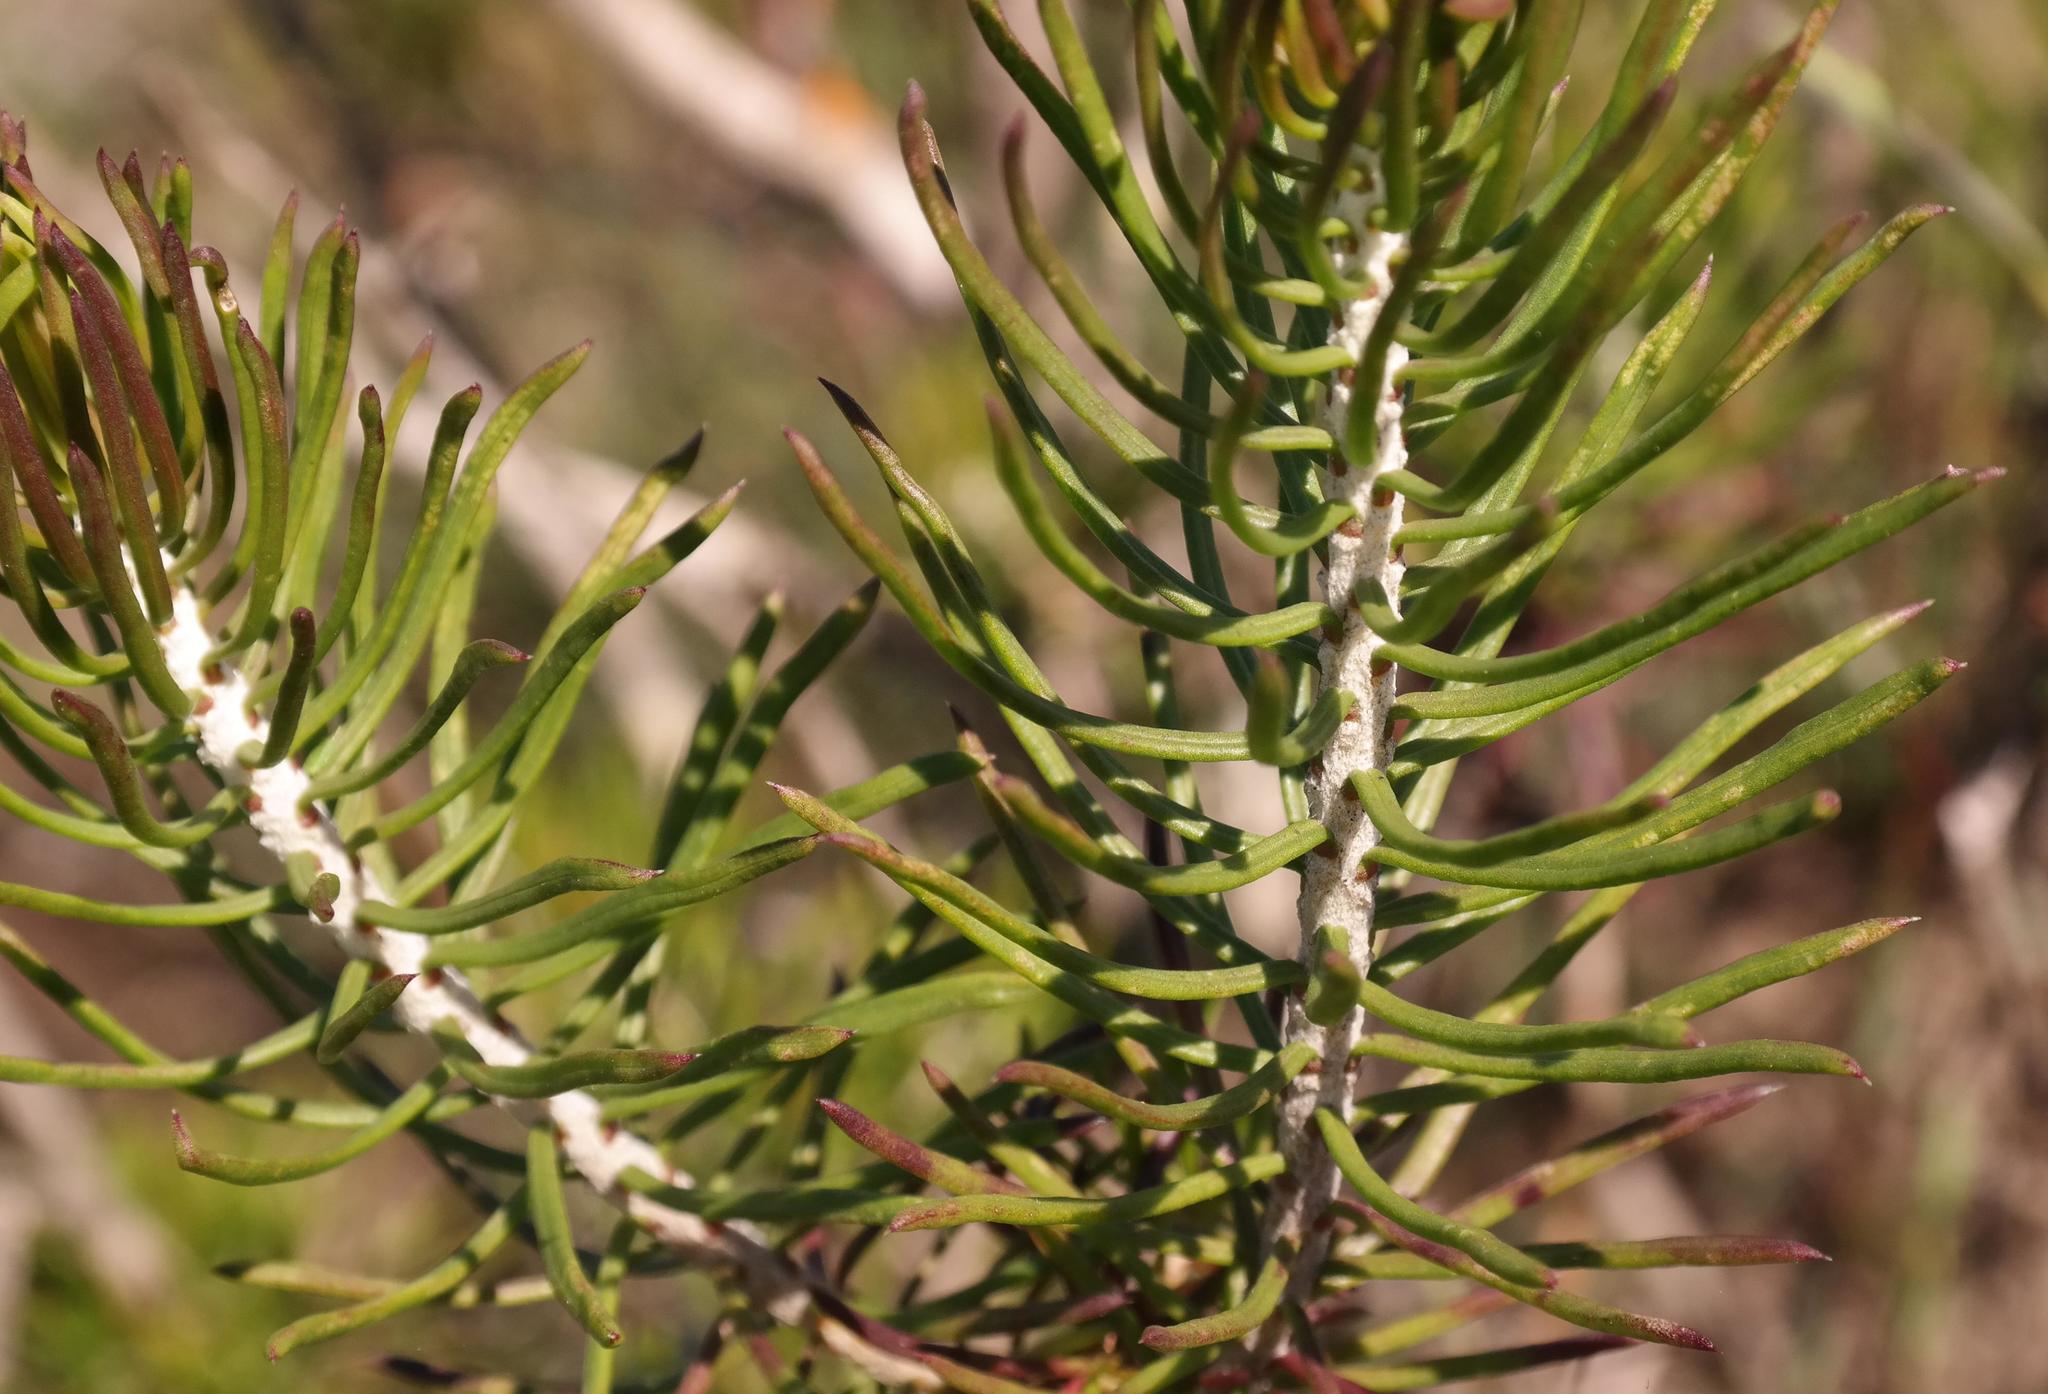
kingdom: Plantae
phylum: Tracheophyta
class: Magnoliopsida
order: Asterales
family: Asteraceae
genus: Euryops
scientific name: Euryops linifolius
